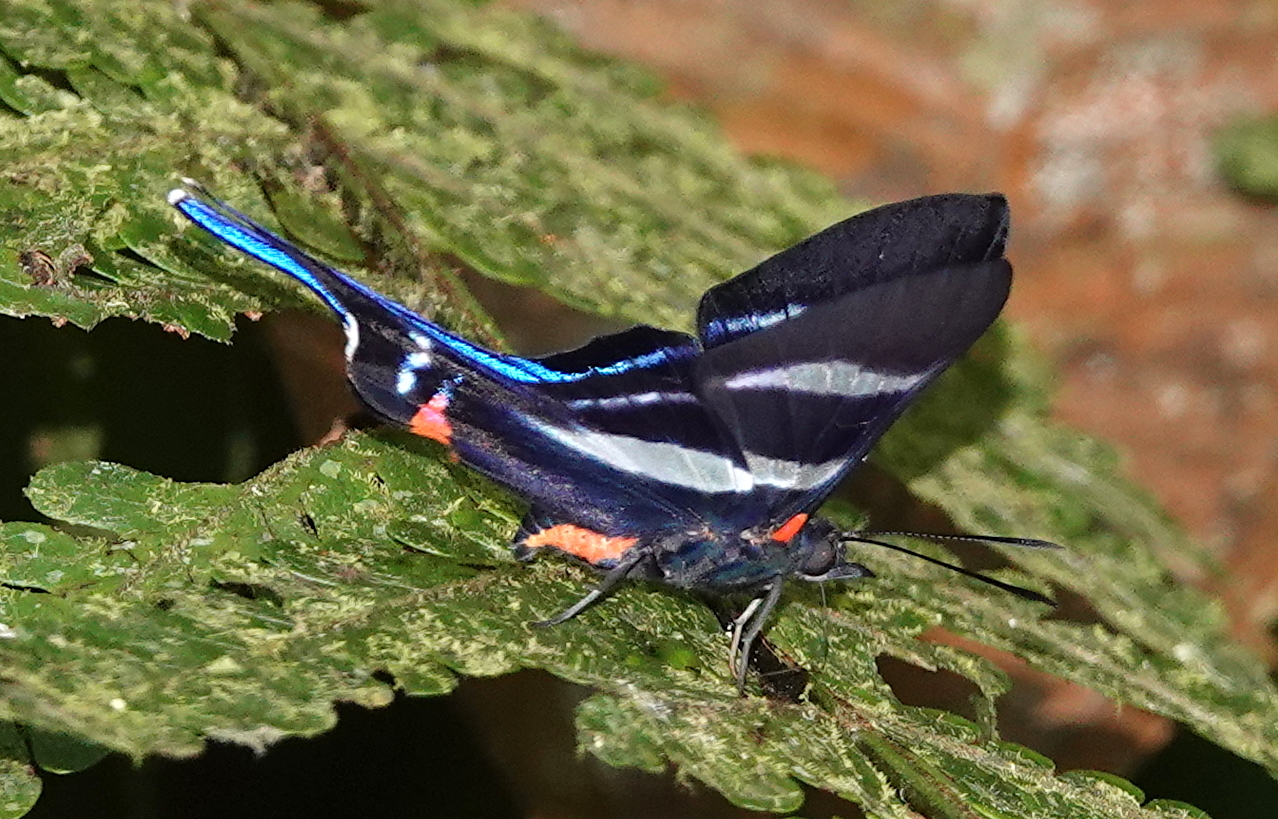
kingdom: Animalia
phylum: Arthropoda
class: Insecta
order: Lepidoptera
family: Riodinidae
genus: Rhetus
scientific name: Rhetus arcius
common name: Long-tailed metalmark
